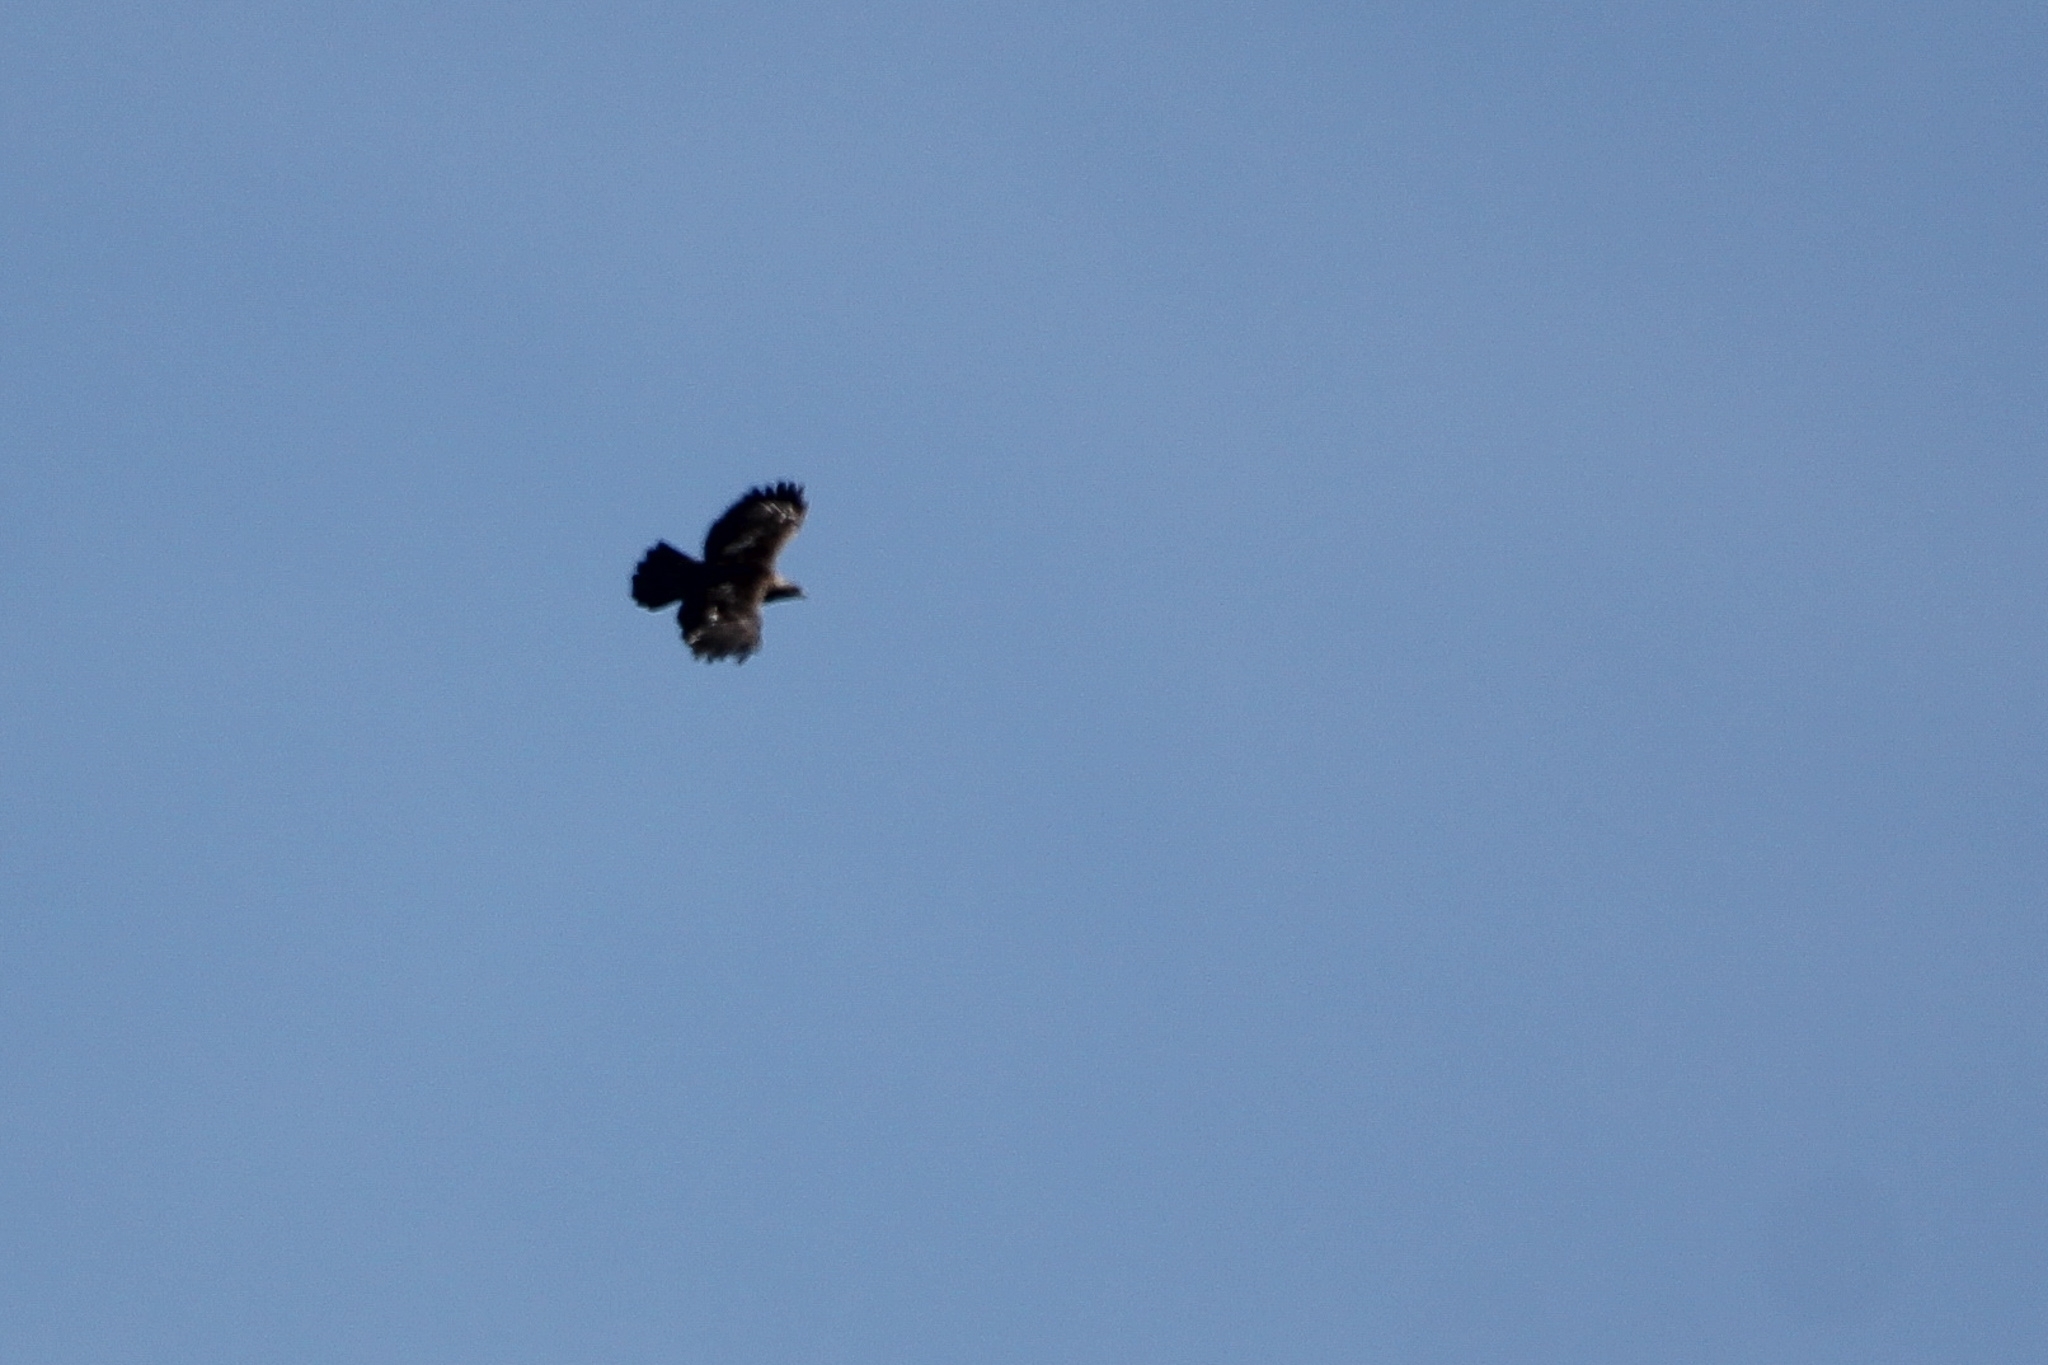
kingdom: Animalia
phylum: Chordata
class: Aves
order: Accipitriformes
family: Accipitridae
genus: Aquila
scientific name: Aquila chrysaetos
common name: Golden eagle
